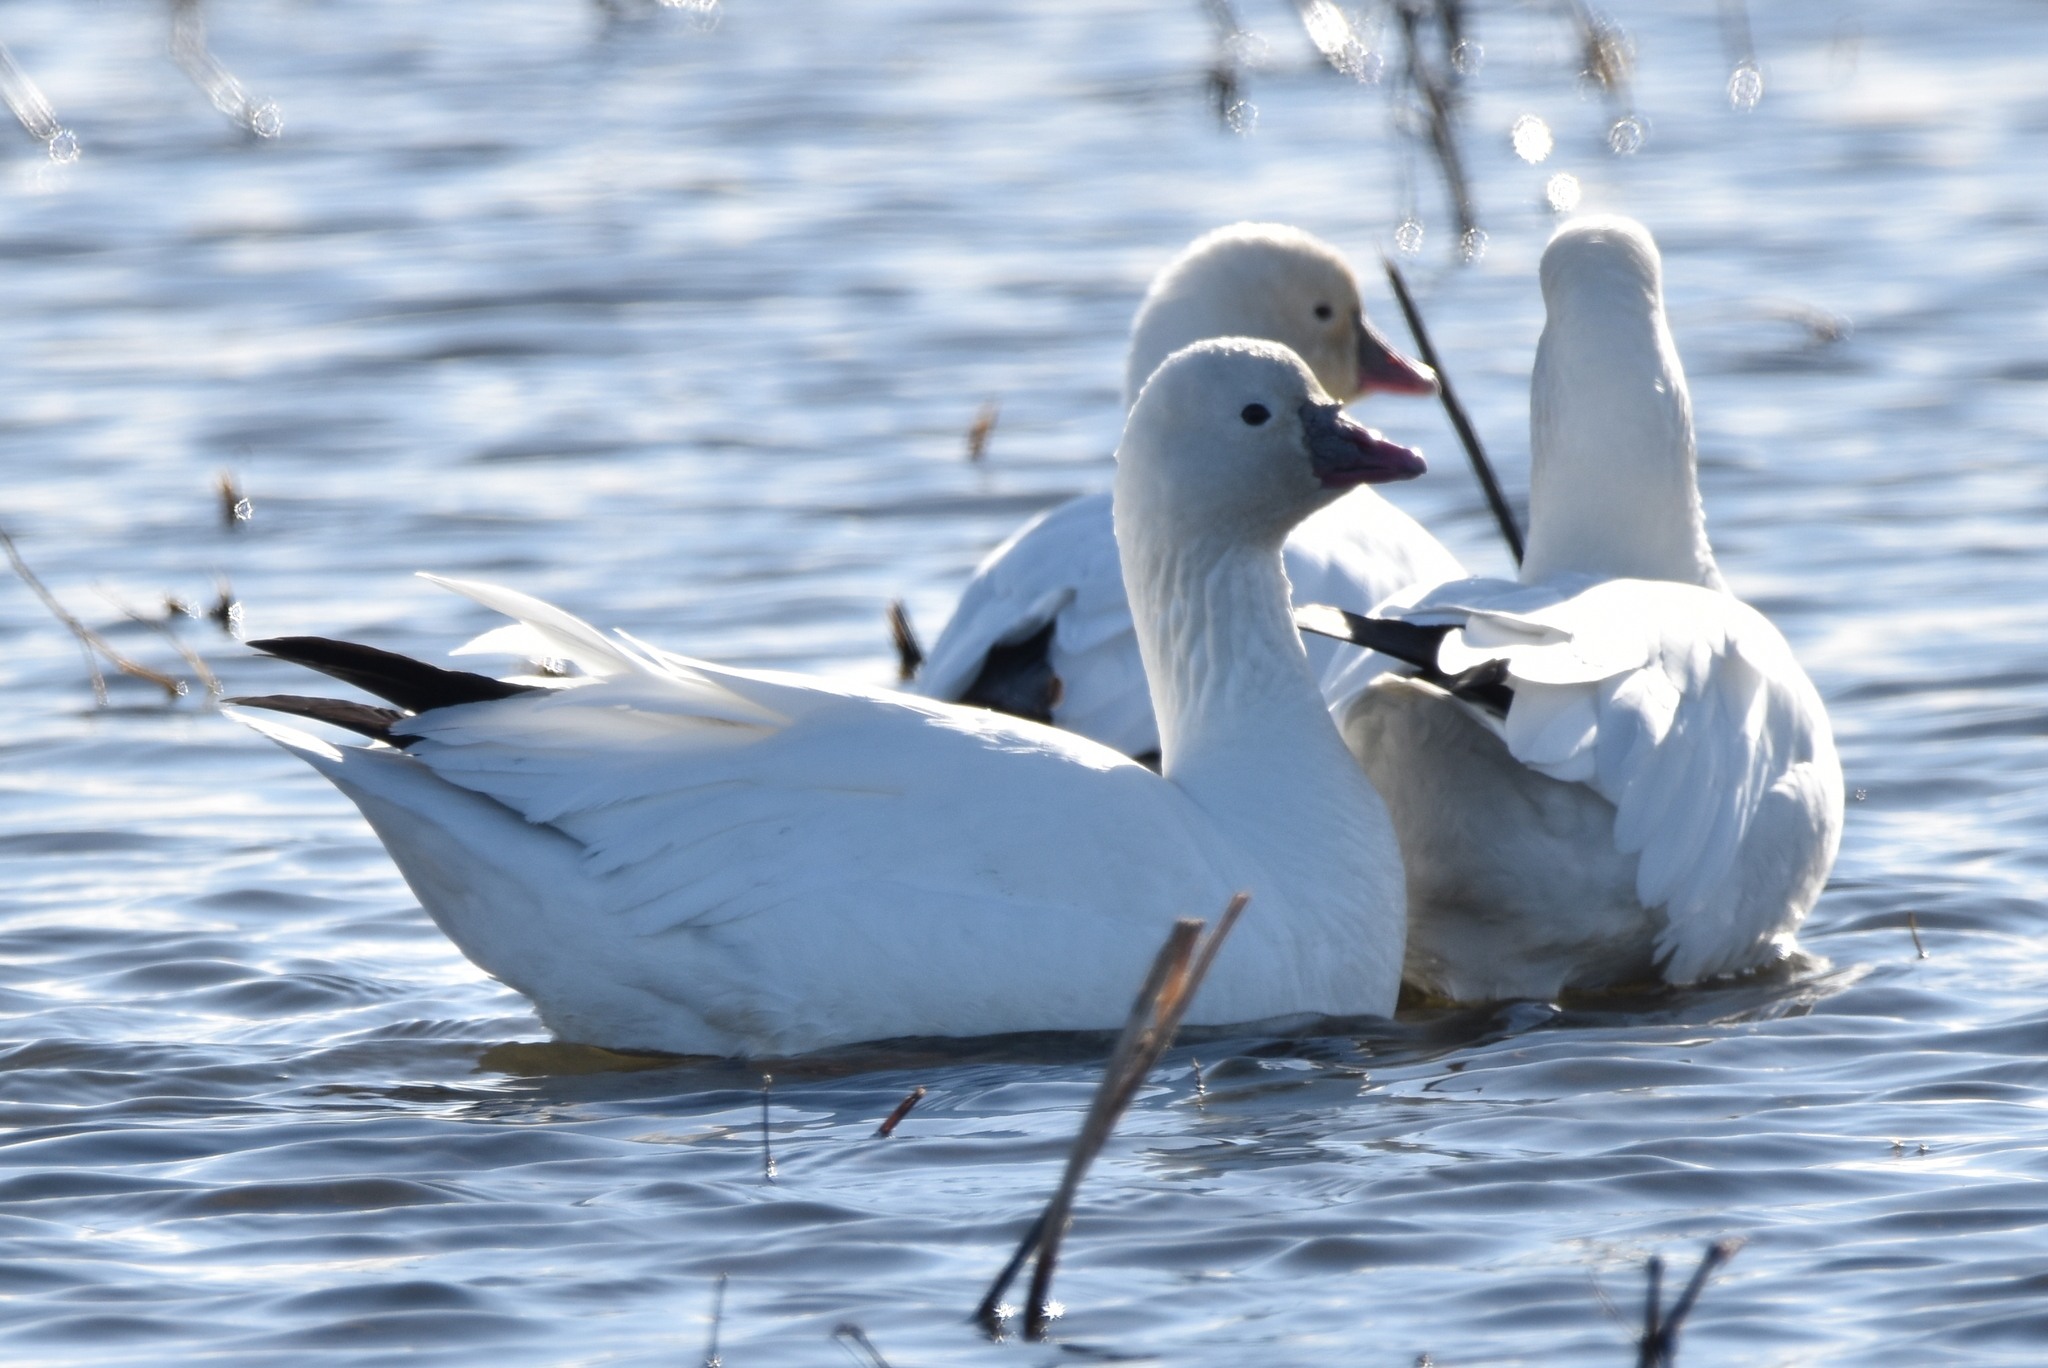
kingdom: Animalia
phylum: Chordata
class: Aves
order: Anseriformes
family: Anatidae
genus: Anser
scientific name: Anser rossii
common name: Ross's goose
